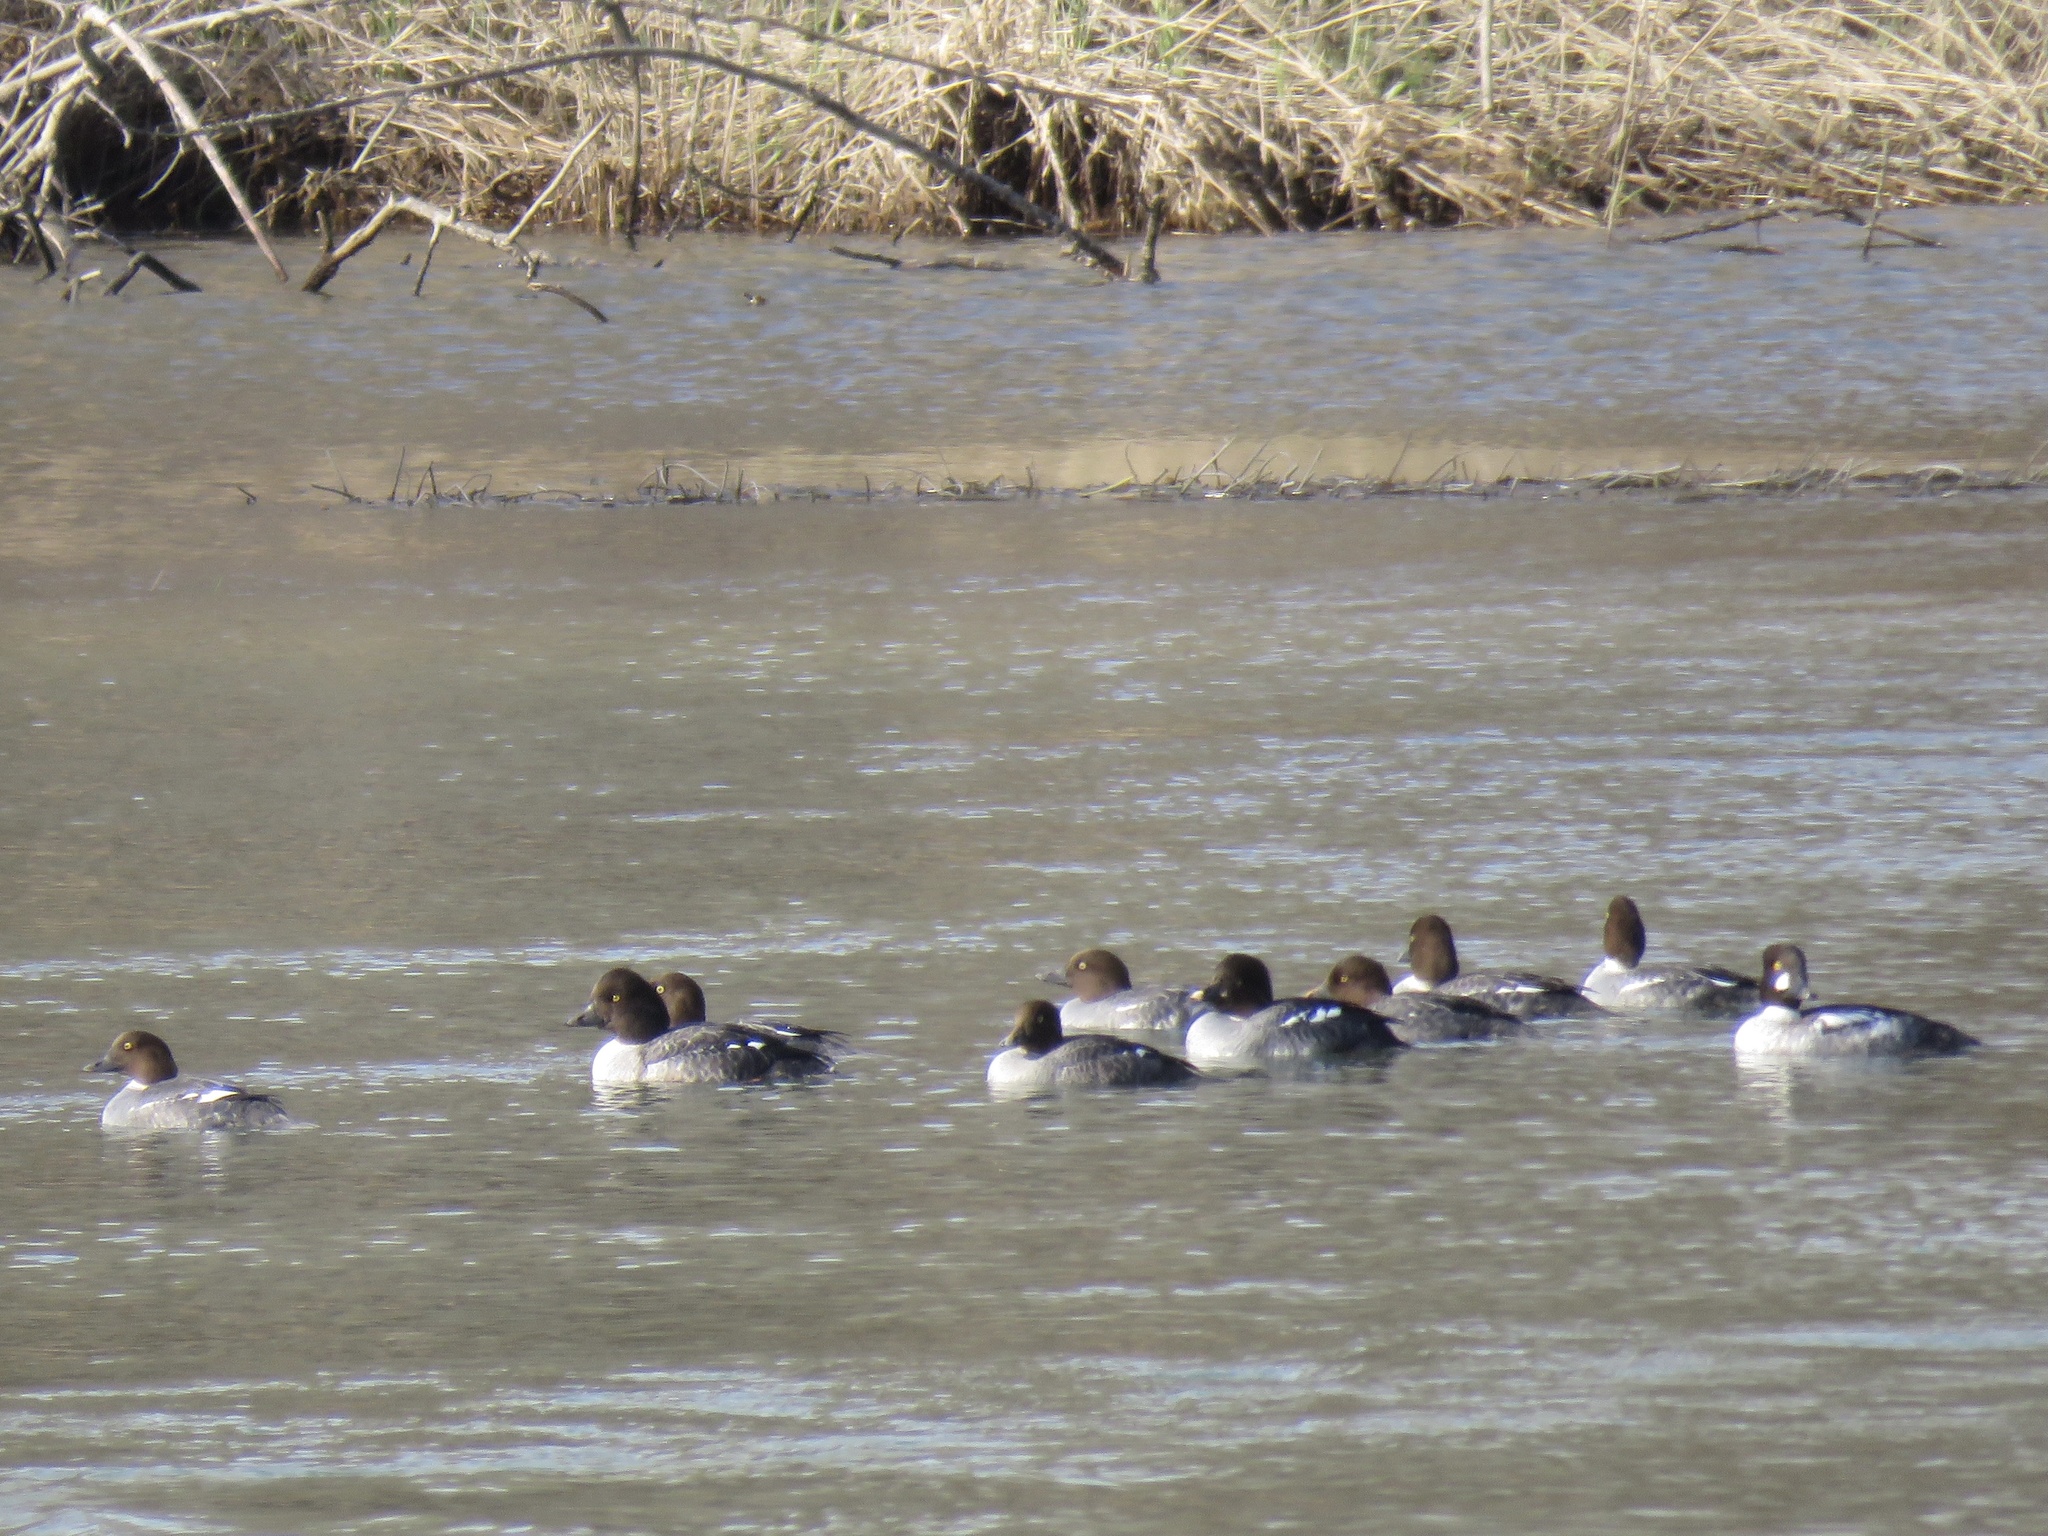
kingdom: Animalia
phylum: Chordata
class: Aves
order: Anseriformes
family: Anatidae
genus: Bucephala
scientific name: Bucephala clangula
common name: Common goldeneye
